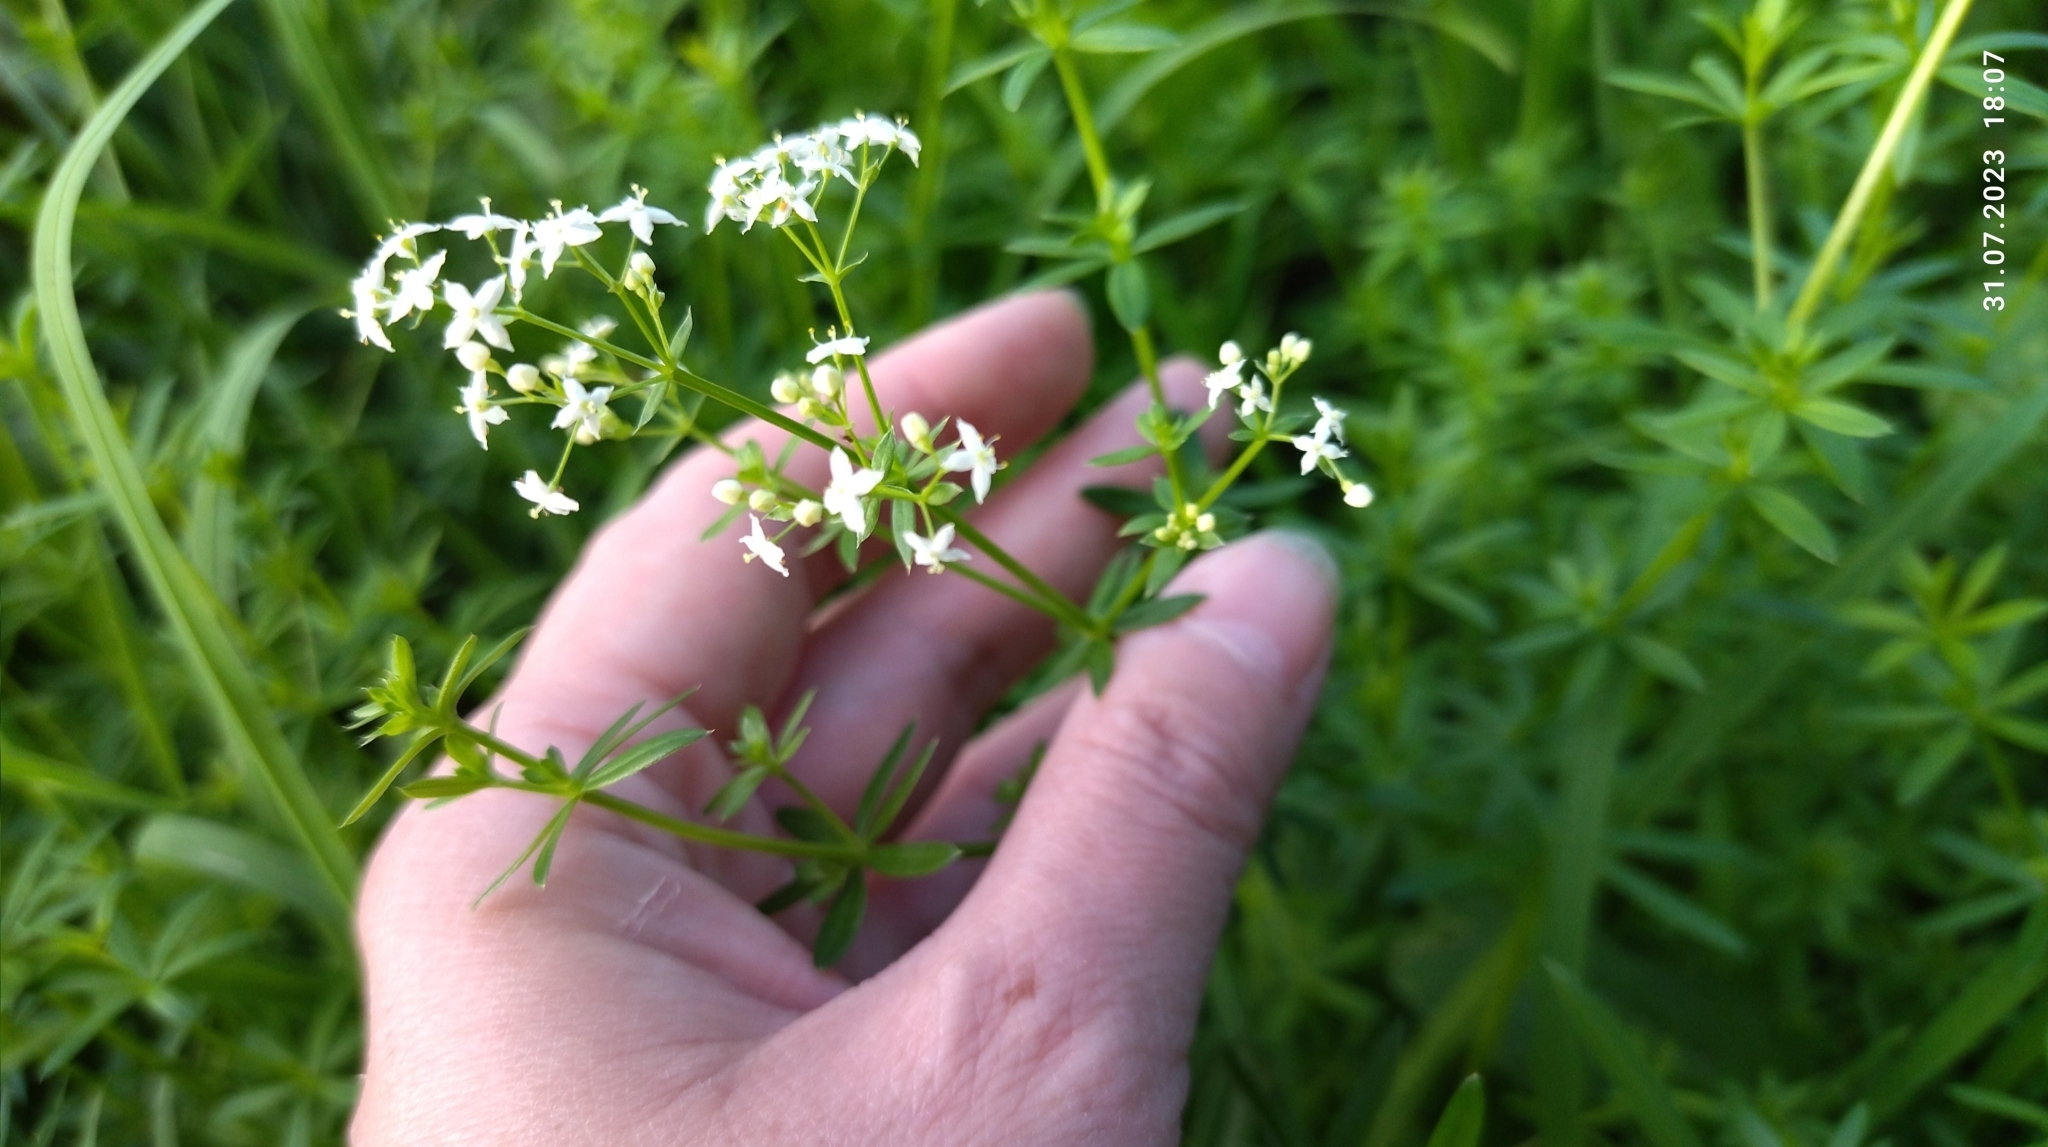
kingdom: Plantae
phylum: Tracheophyta
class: Magnoliopsida
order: Gentianales
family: Rubiaceae
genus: Galium
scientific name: Galium mollugo
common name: Hedge bedstraw
